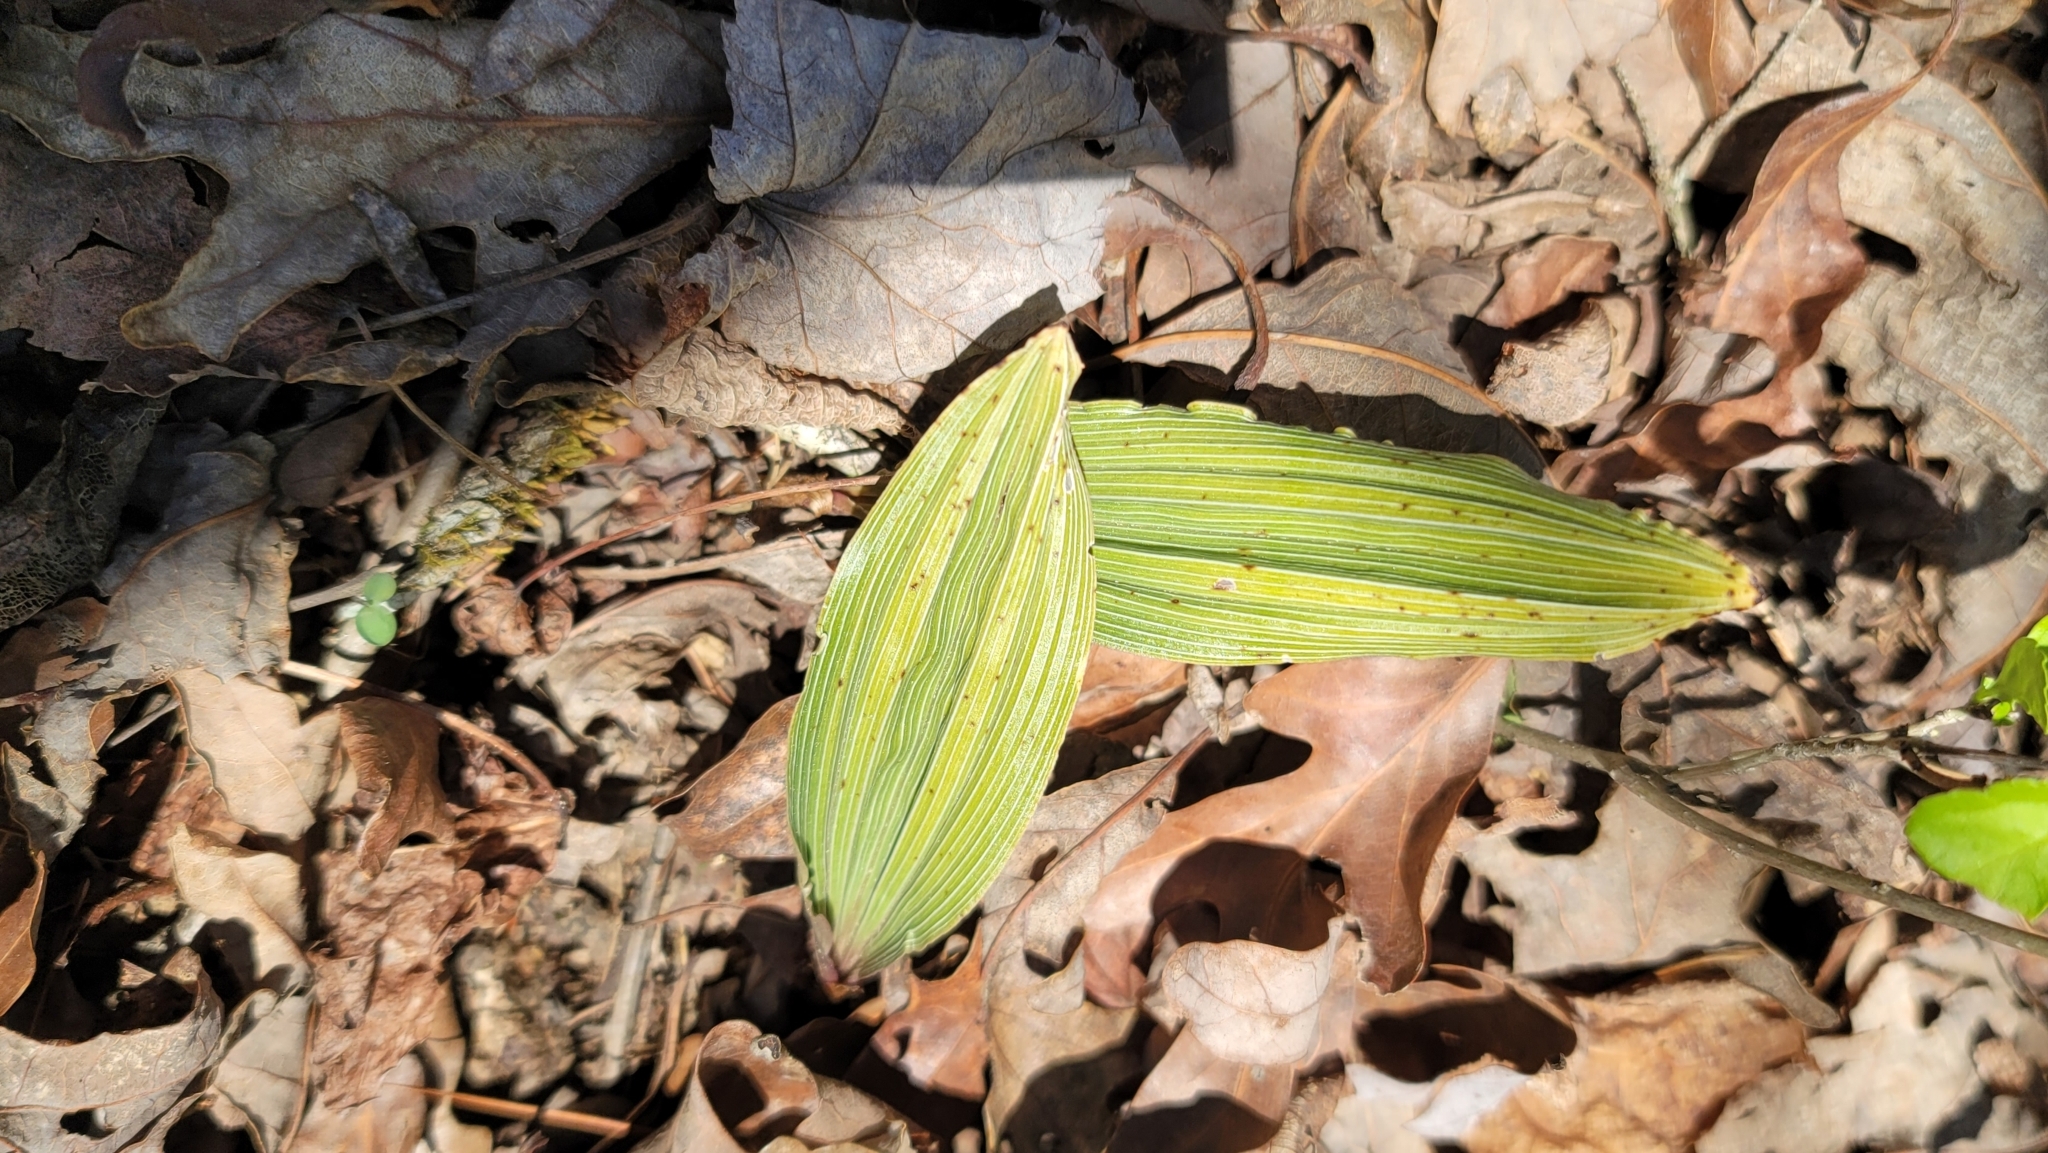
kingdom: Plantae
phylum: Tracheophyta
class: Liliopsida
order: Asparagales
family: Orchidaceae
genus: Aplectrum
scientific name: Aplectrum hyemale
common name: Adam-and-eve
